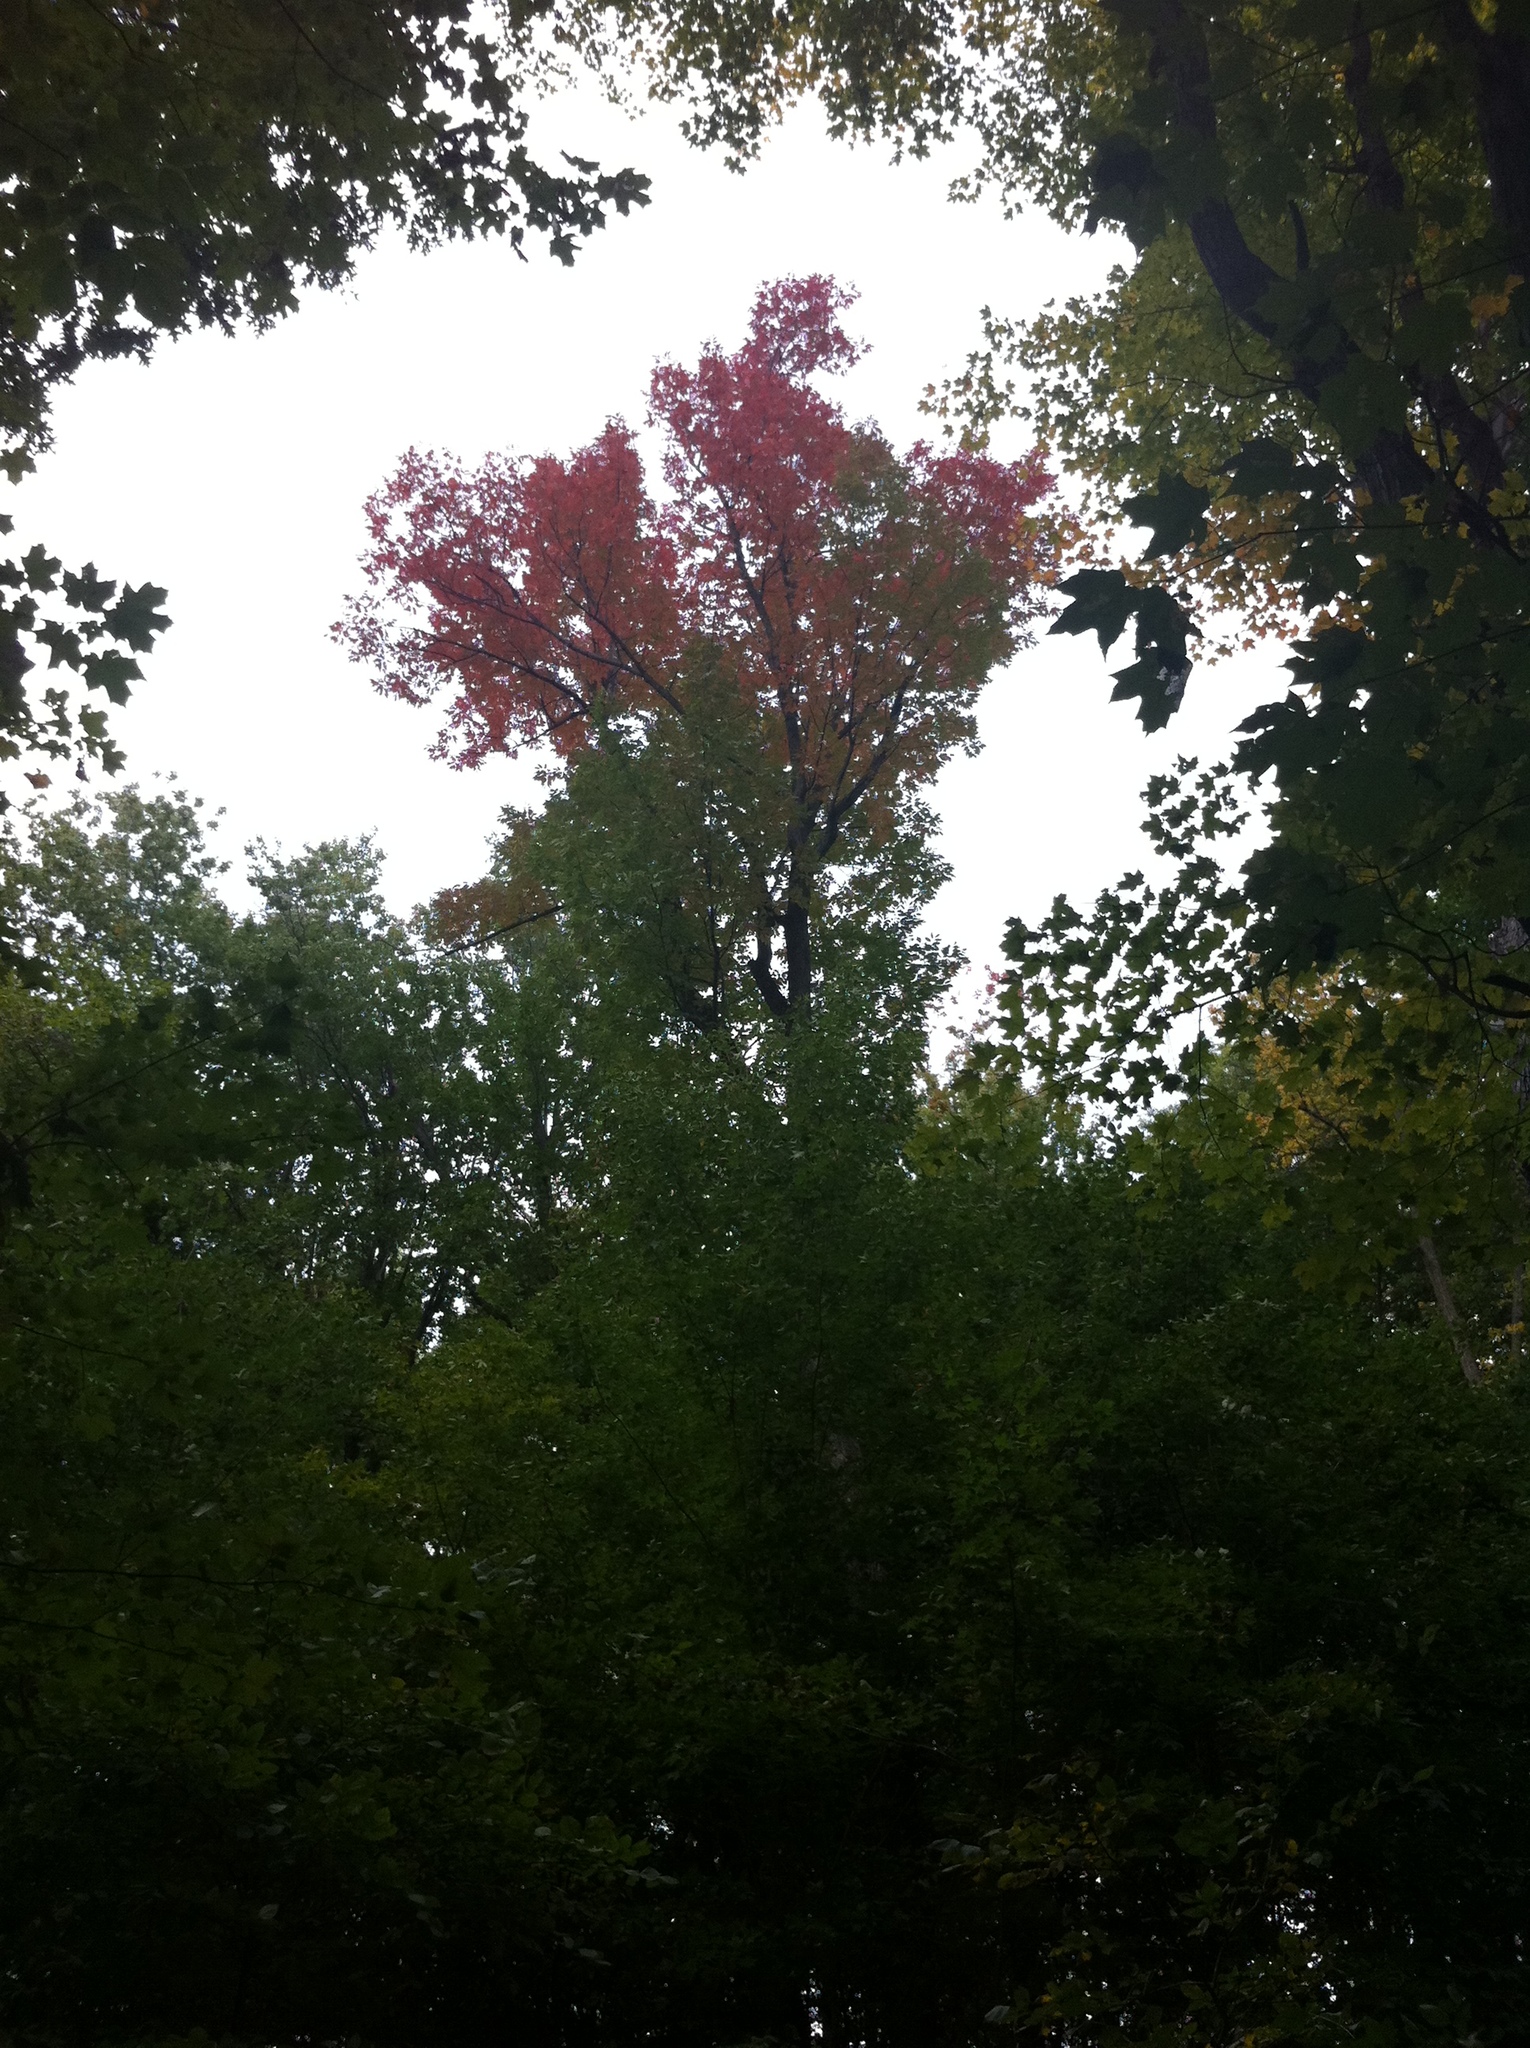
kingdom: Plantae
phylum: Tracheophyta
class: Magnoliopsida
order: Sapindales
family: Sapindaceae
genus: Acer
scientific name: Acer rubrum
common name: Red maple
